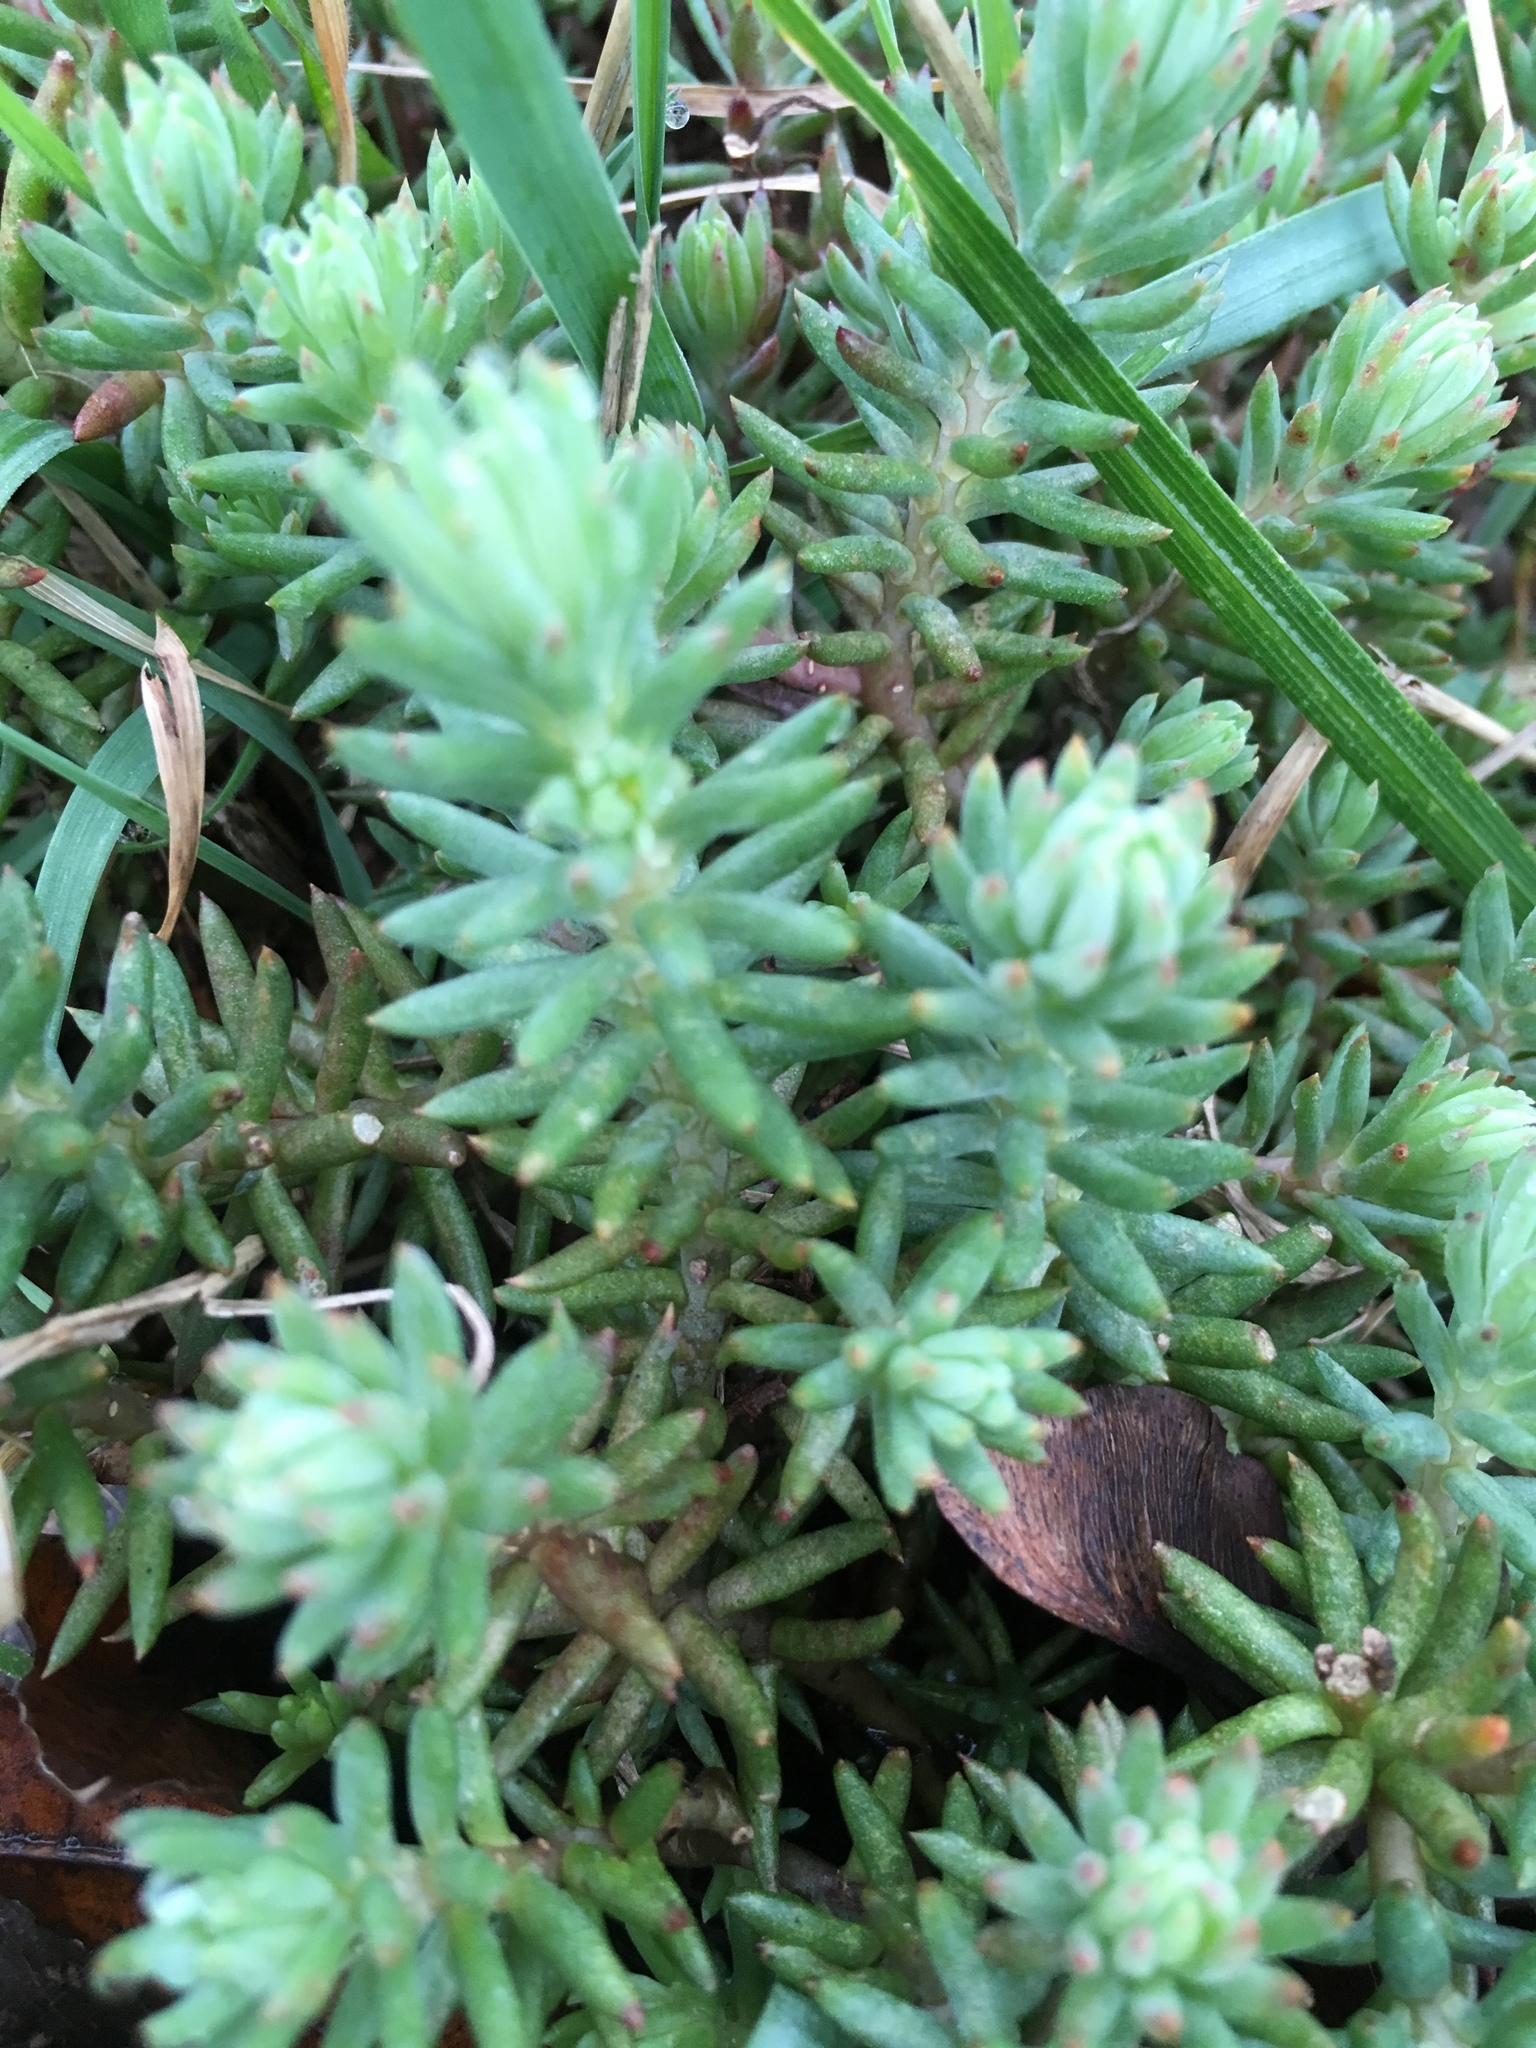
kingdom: Plantae
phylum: Tracheophyta
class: Magnoliopsida
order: Saxifragales
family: Crassulaceae
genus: Petrosedum
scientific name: Petrosedum rupestre
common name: Jenny's stonecrop
